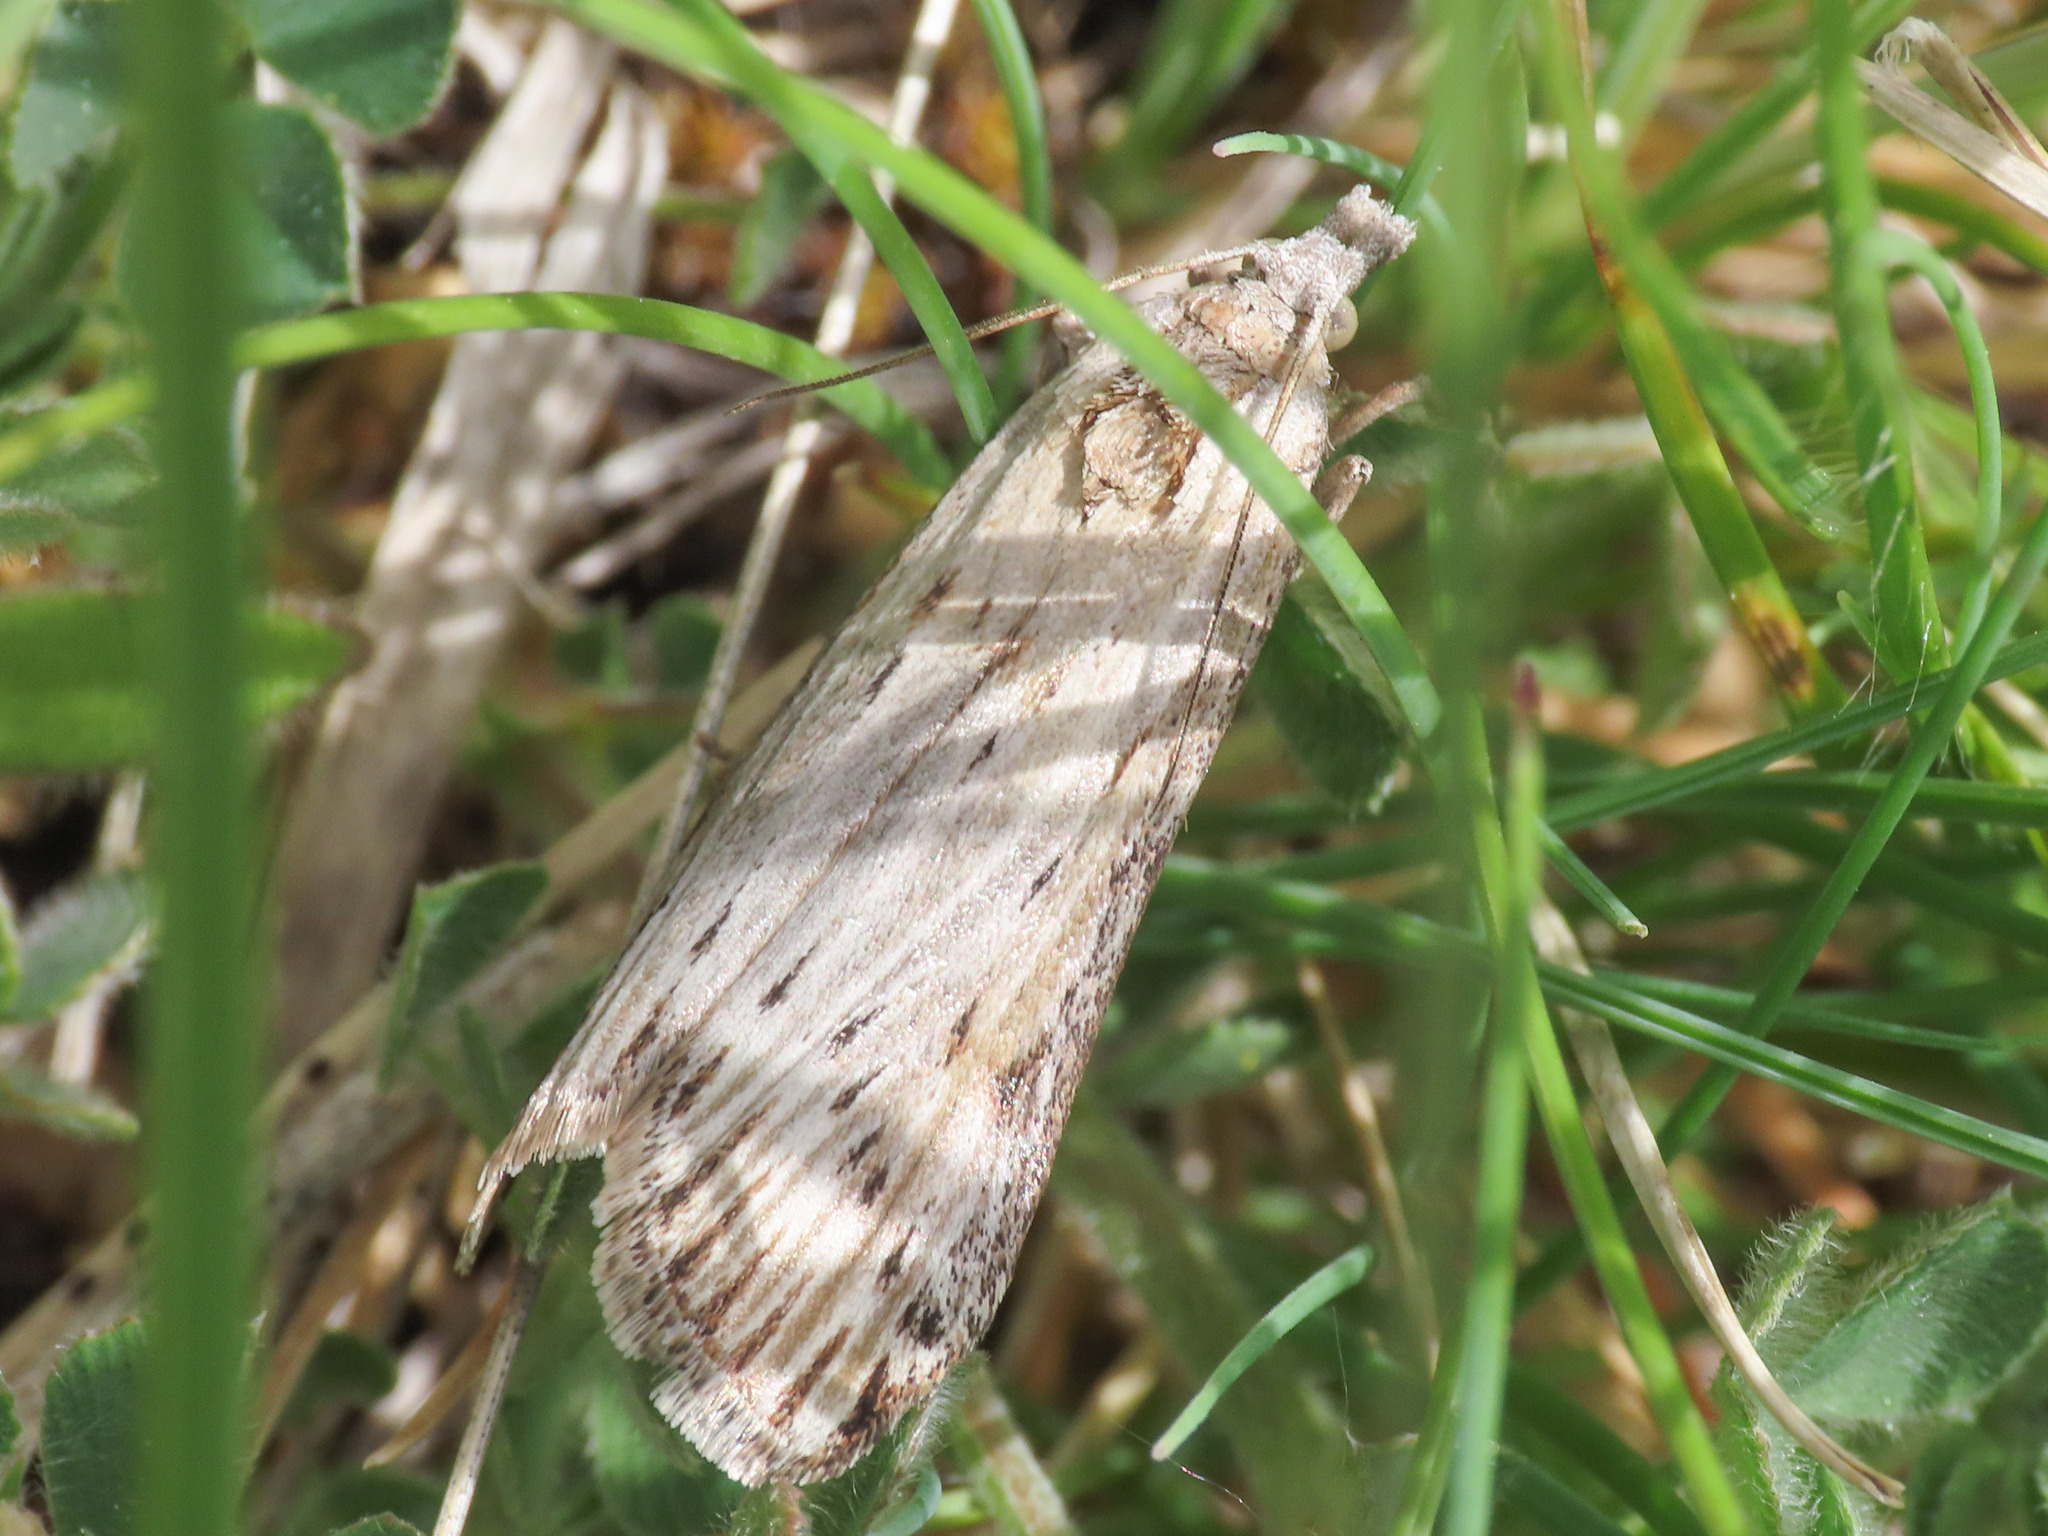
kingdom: Animalia
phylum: Arthropoda
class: Insecta
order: Lepidoptera
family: Pyralidae
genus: Megasis
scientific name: Megasis prodomella
